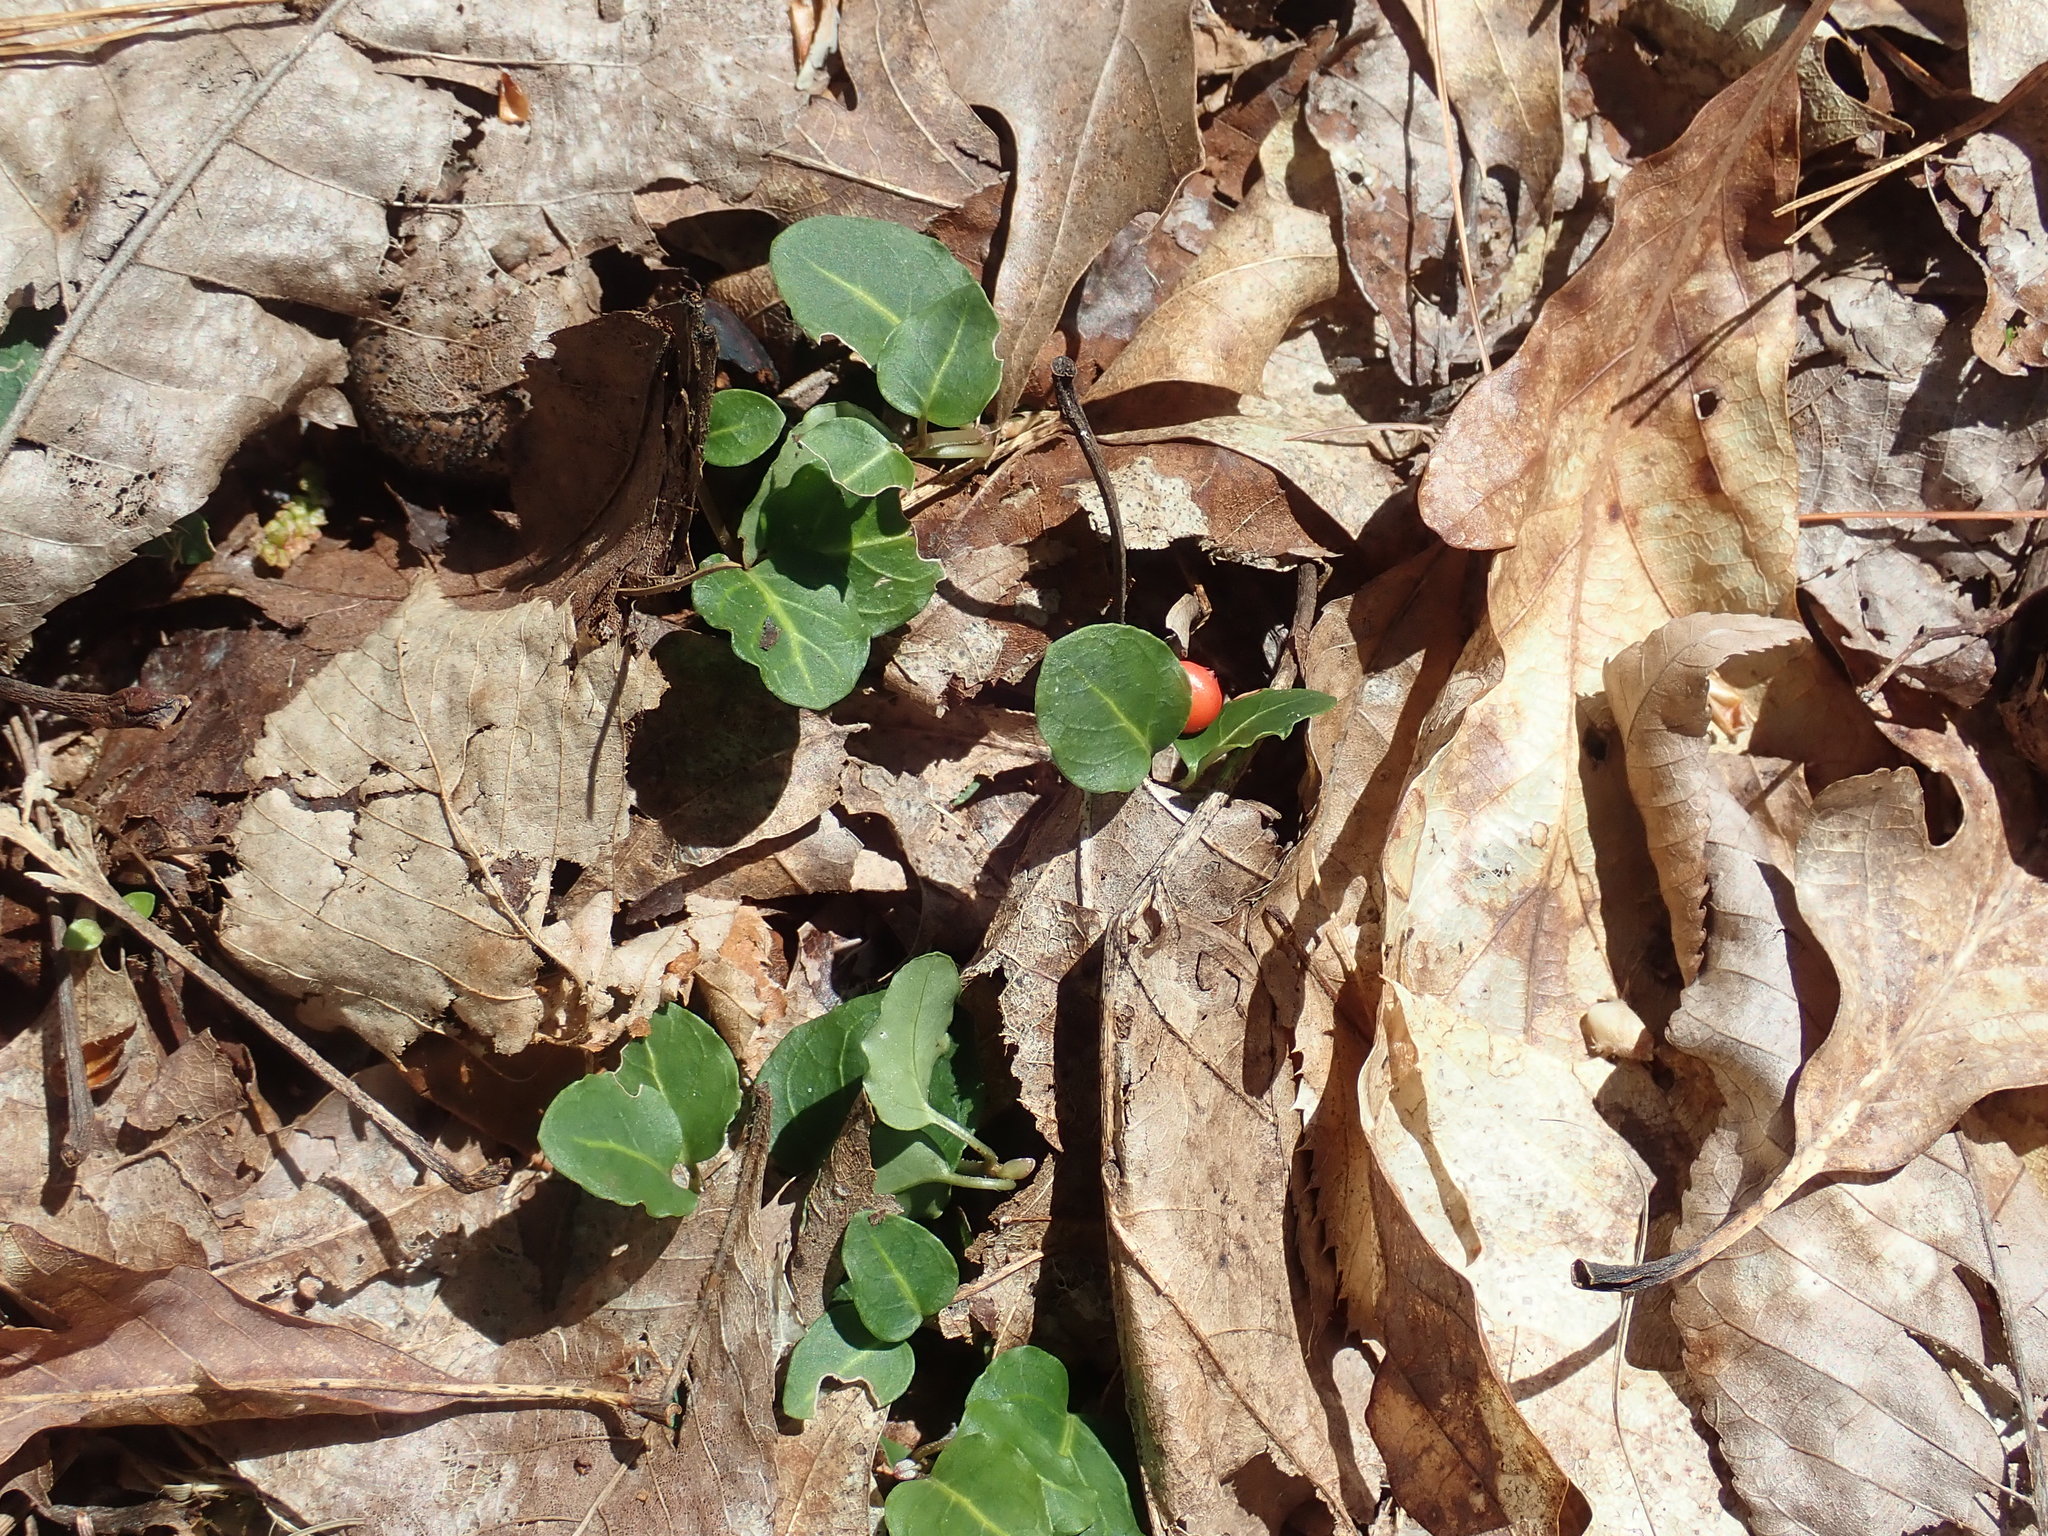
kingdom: Plantae
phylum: Tracheophyta
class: Magnoliopsida
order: Gentianales
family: Rubiaceae
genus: Mitchella
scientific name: Mitchella repens
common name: Partridge-berry
